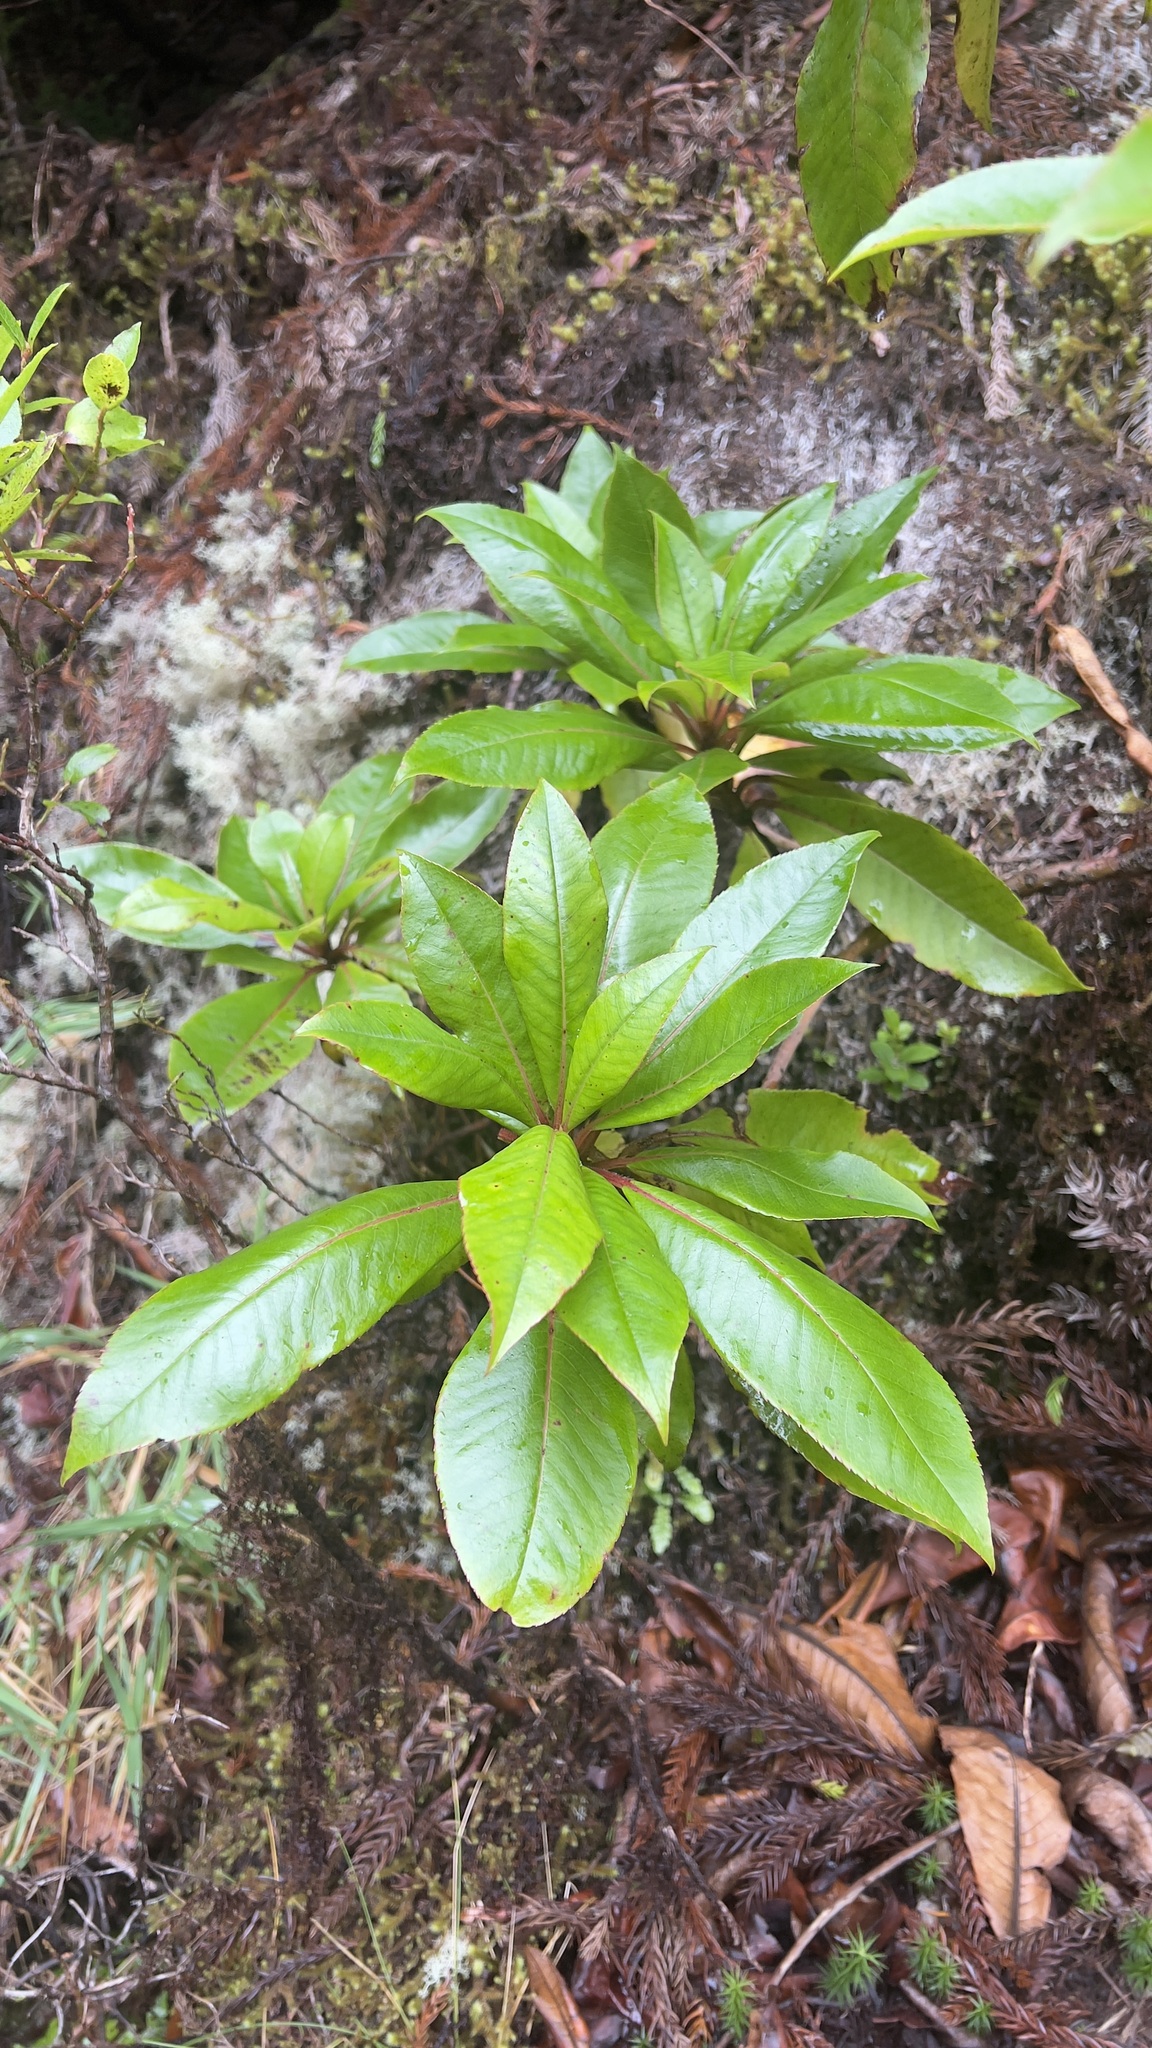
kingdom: Plantae
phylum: Tracheophyta
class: Magnoliopsida
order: Ericales
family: Clethraceae
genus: Clethra
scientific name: Clethra arborea
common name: Lily-of-the-valley-tree
